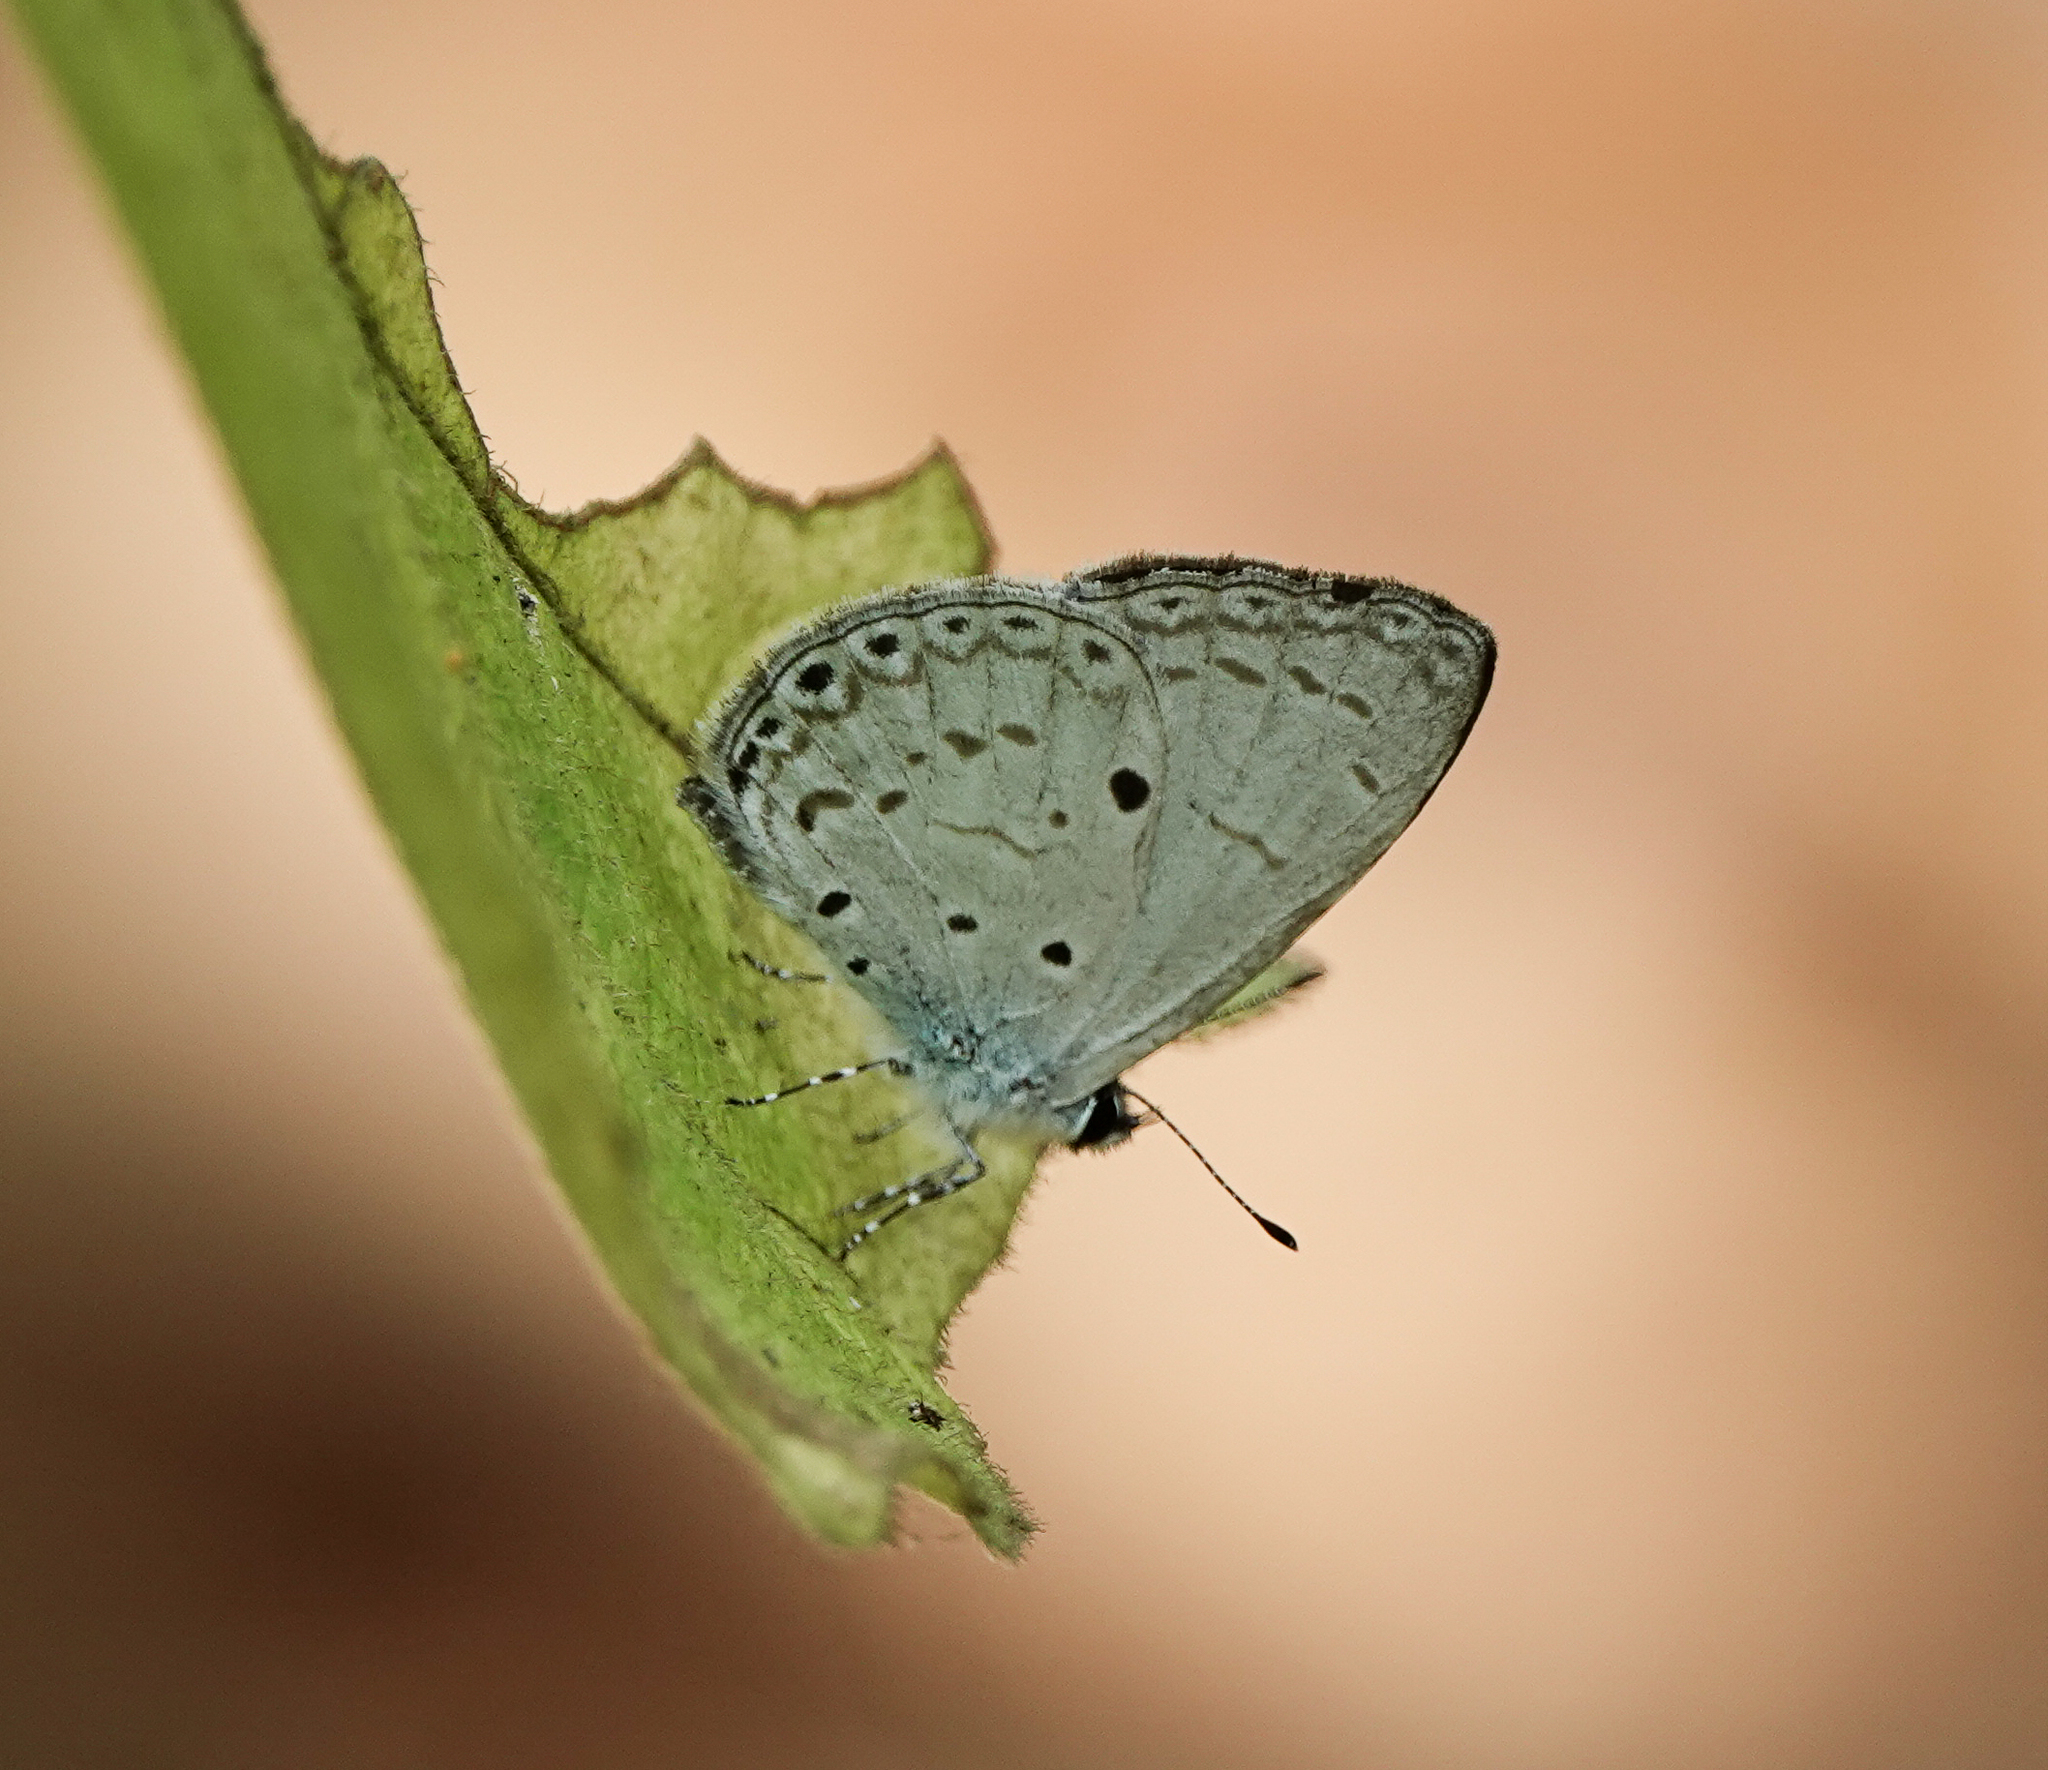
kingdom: Animalia
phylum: Arthropoda
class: Insecta
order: Lepidoptera
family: Lycaenidae
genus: Acytolepis
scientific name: Acytolepis puspa
